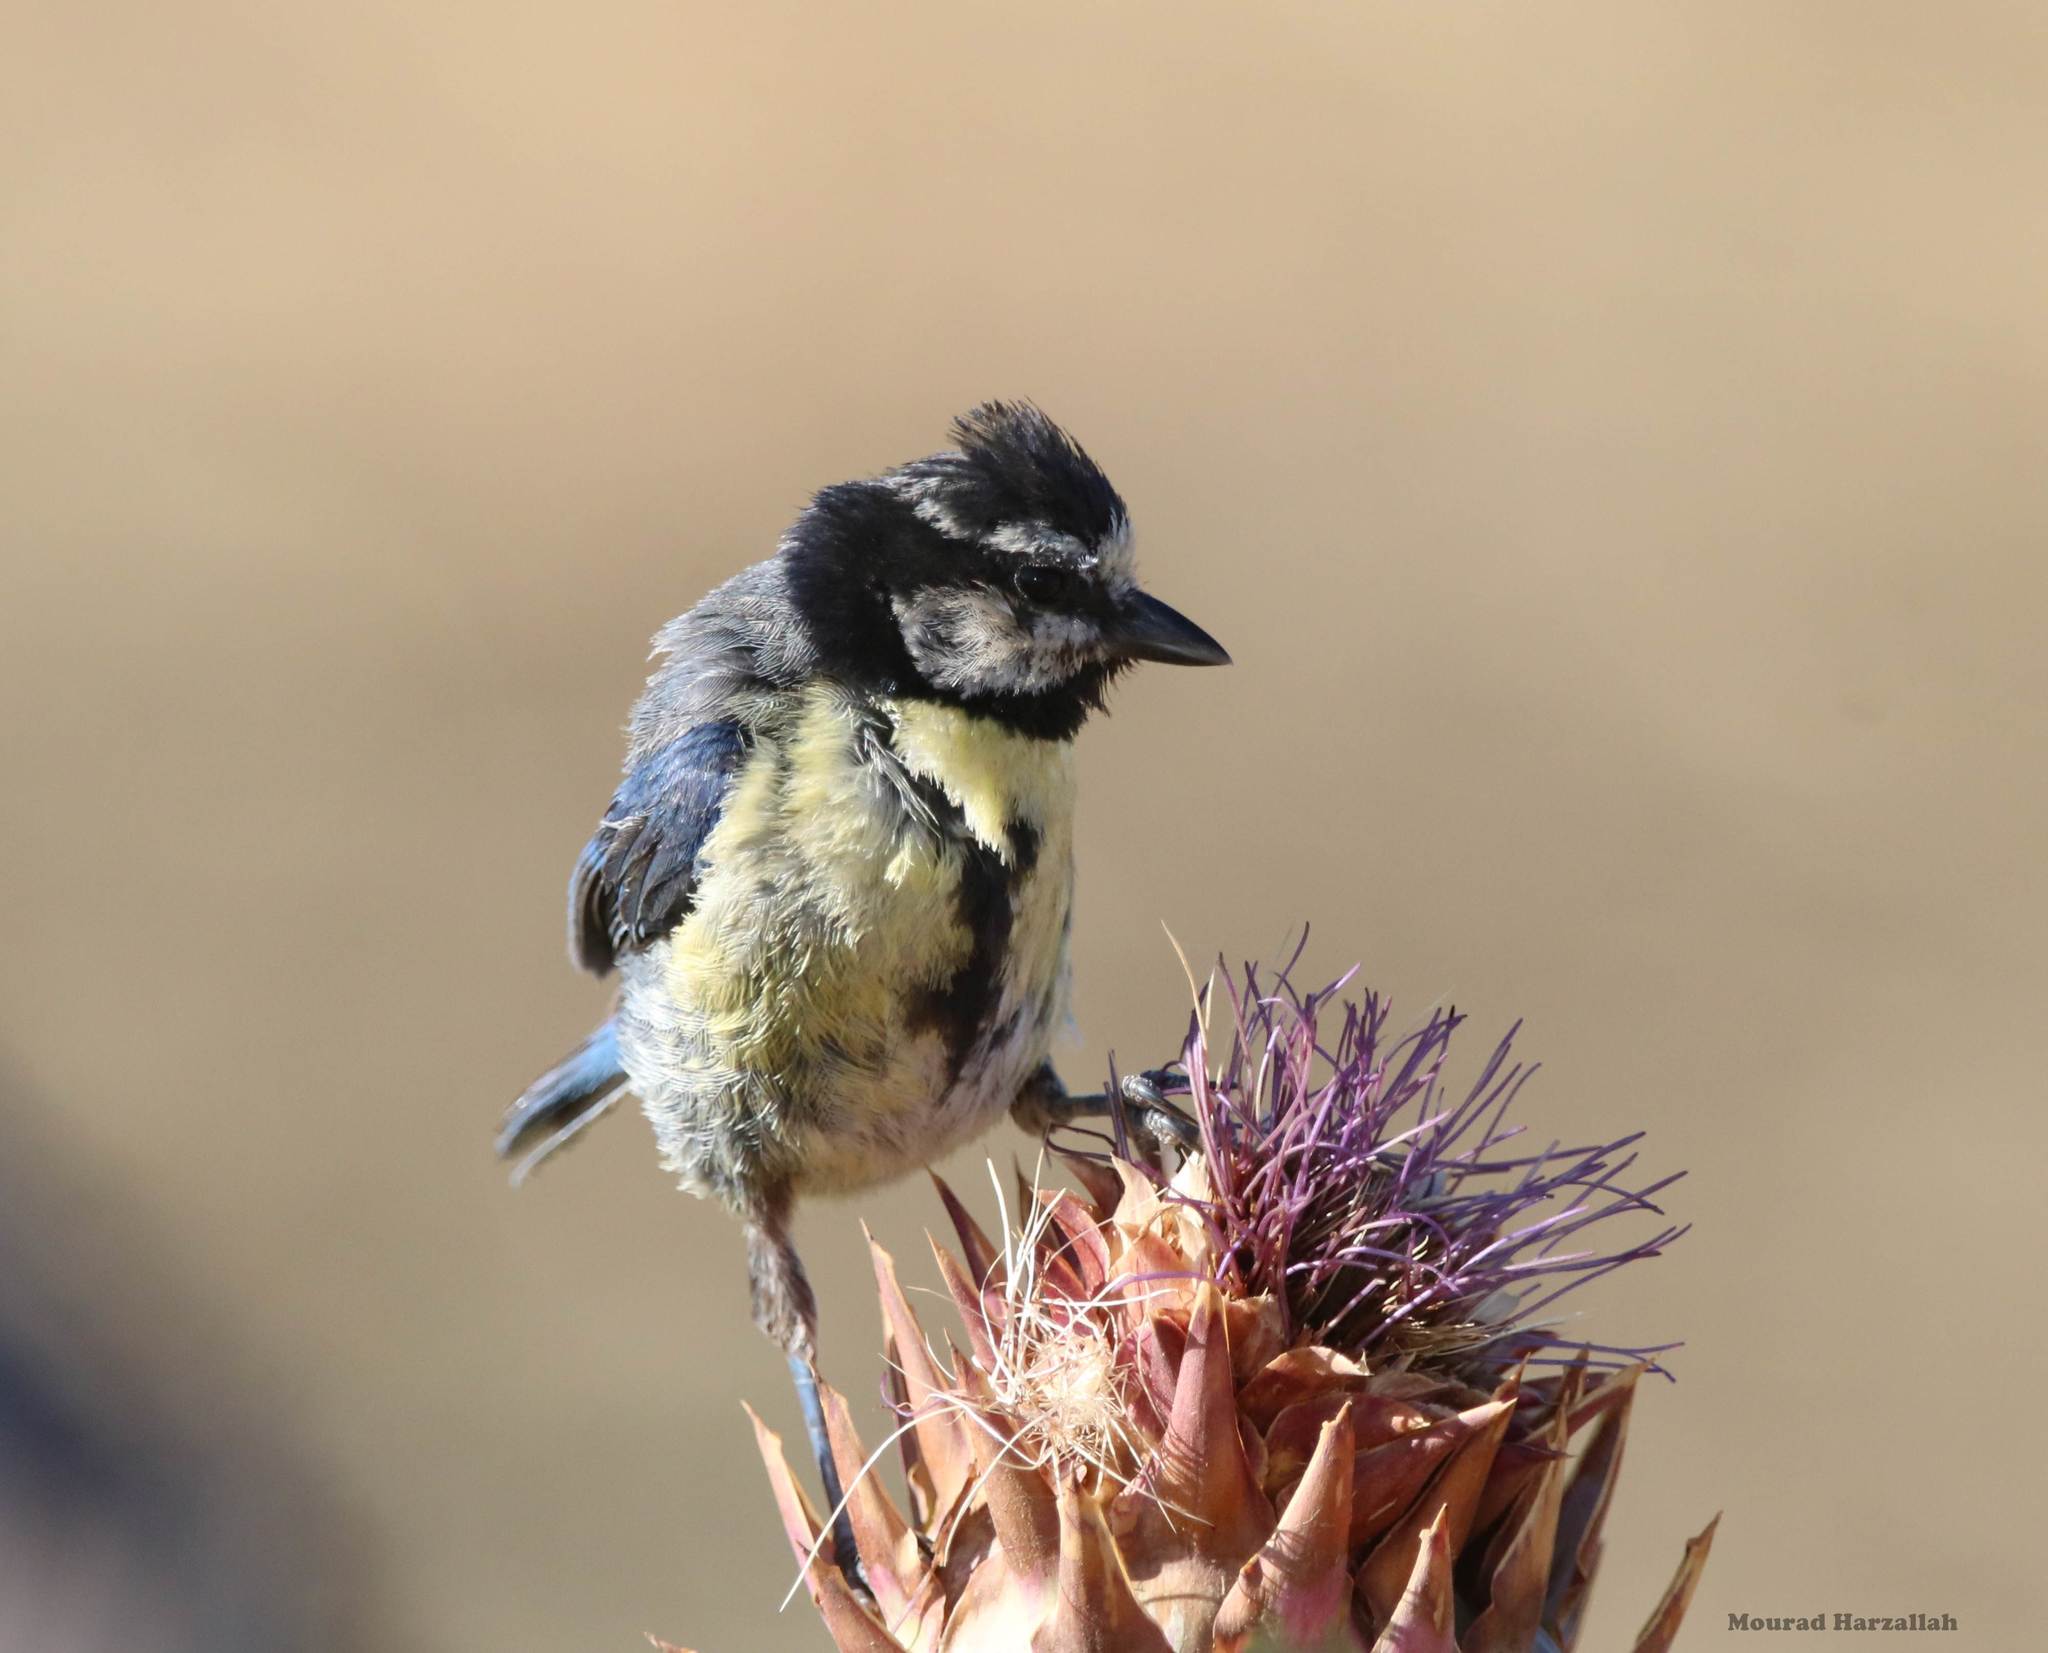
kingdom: Animalia
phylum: Chordata
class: Aves
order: Passeriformes
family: Paridae
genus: Cyanistes
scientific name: Cyanistes teneriffae
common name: African blue tit
